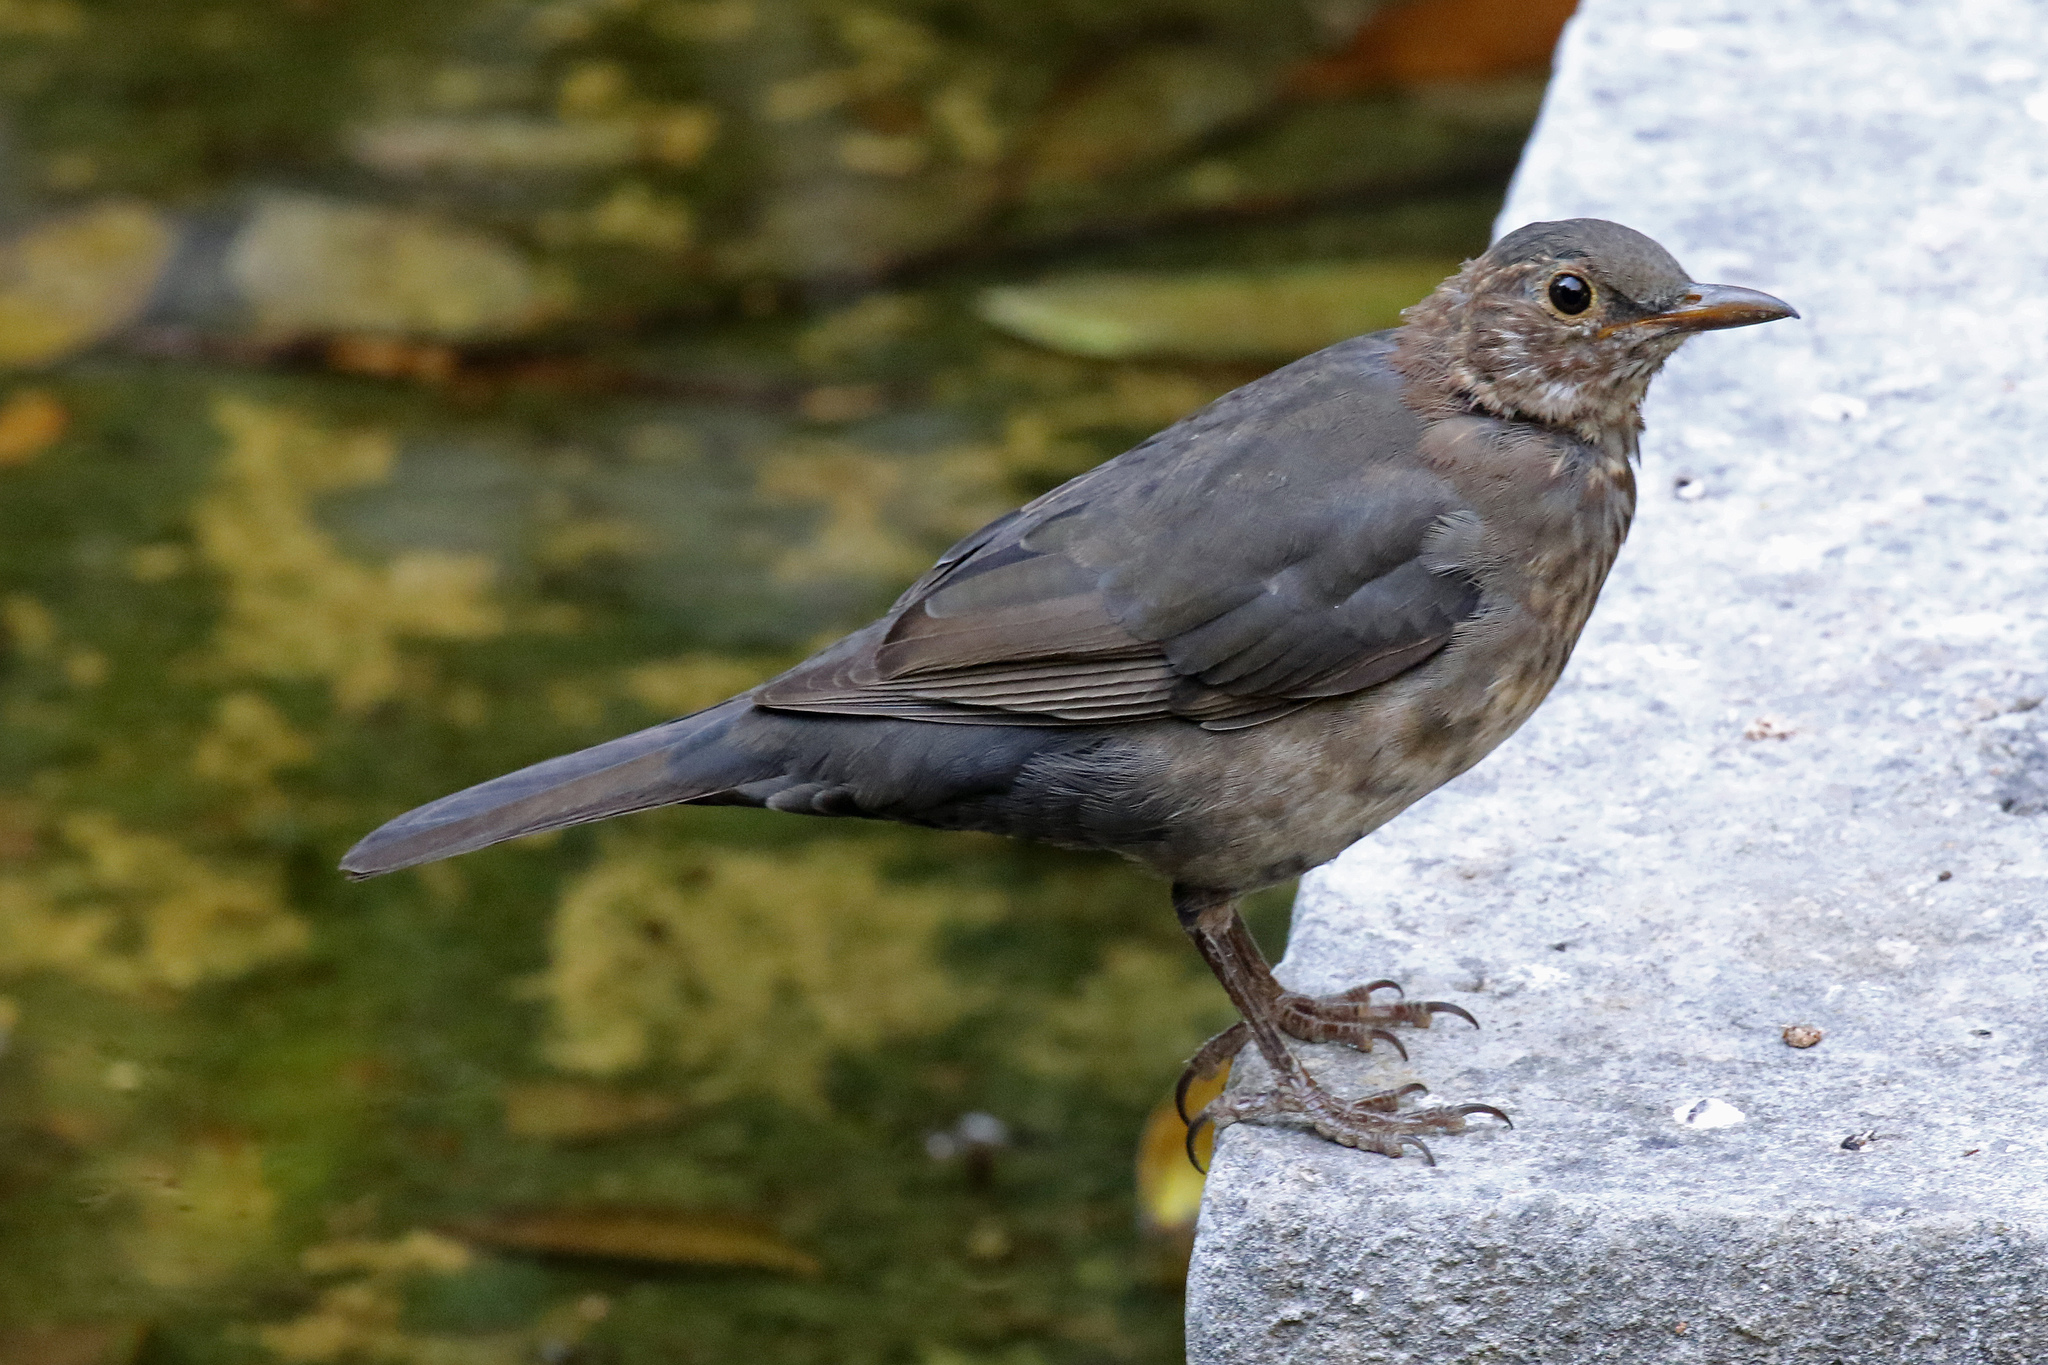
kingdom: Animalia
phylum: Chordata
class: Aves
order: Passeriformes
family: Turdidae
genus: Turdus
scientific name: Turdus merula
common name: Common blackbird
